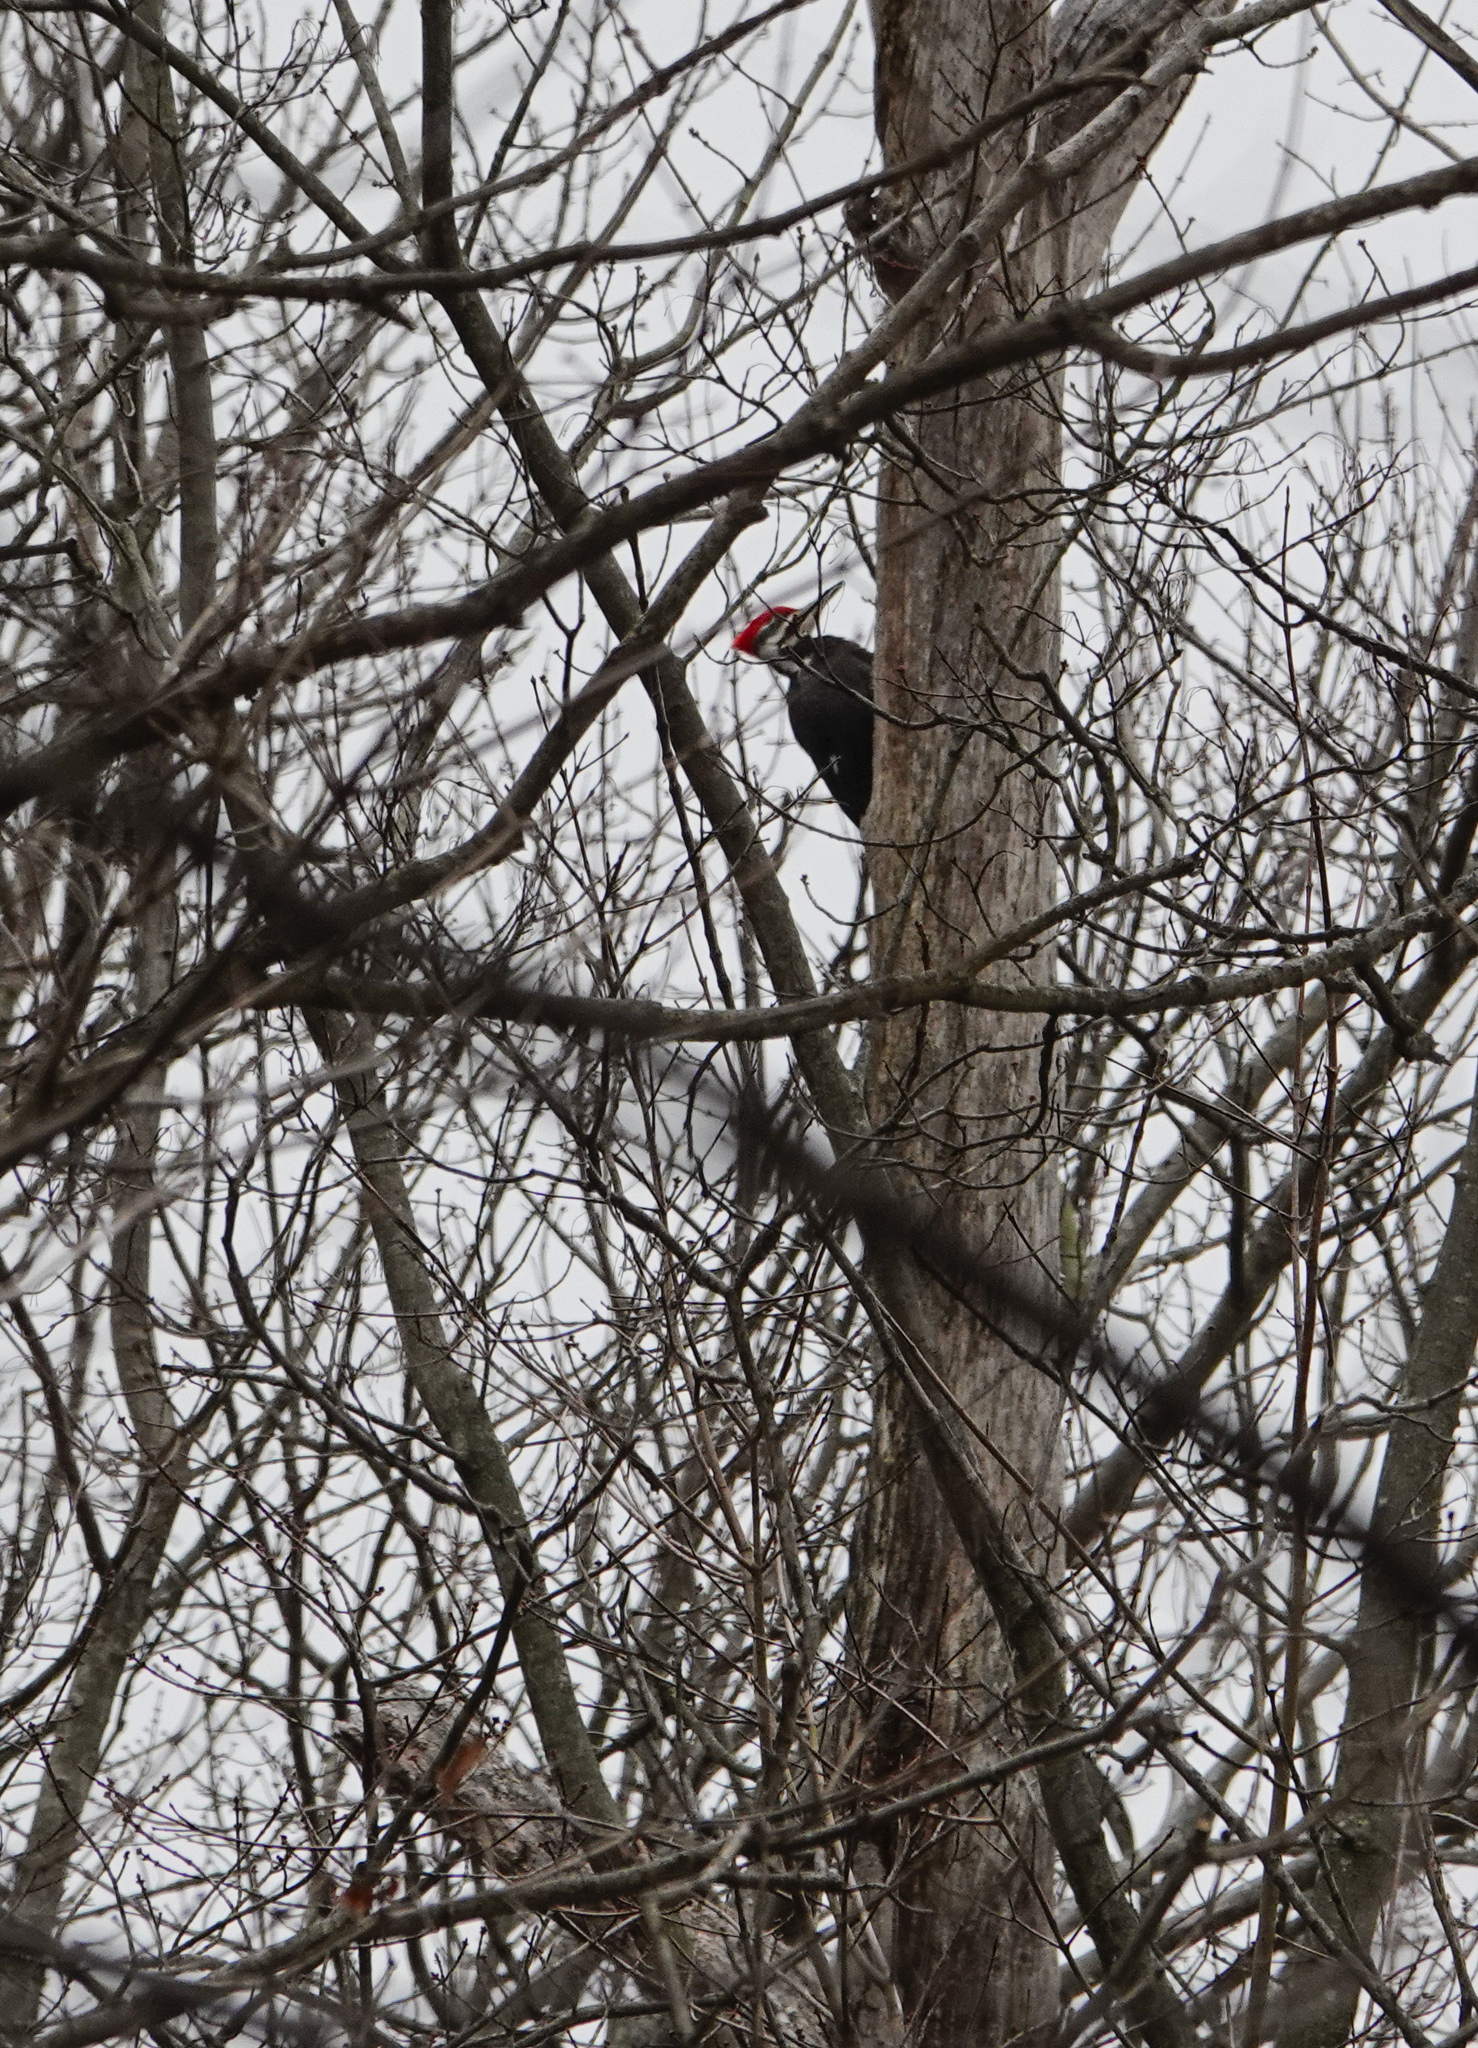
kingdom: Animalia
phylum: Chordata
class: Aves
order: Piciformes
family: Picidae
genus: Dryocopus
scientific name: Dryocopus pileatus
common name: Pileated woodpecker
